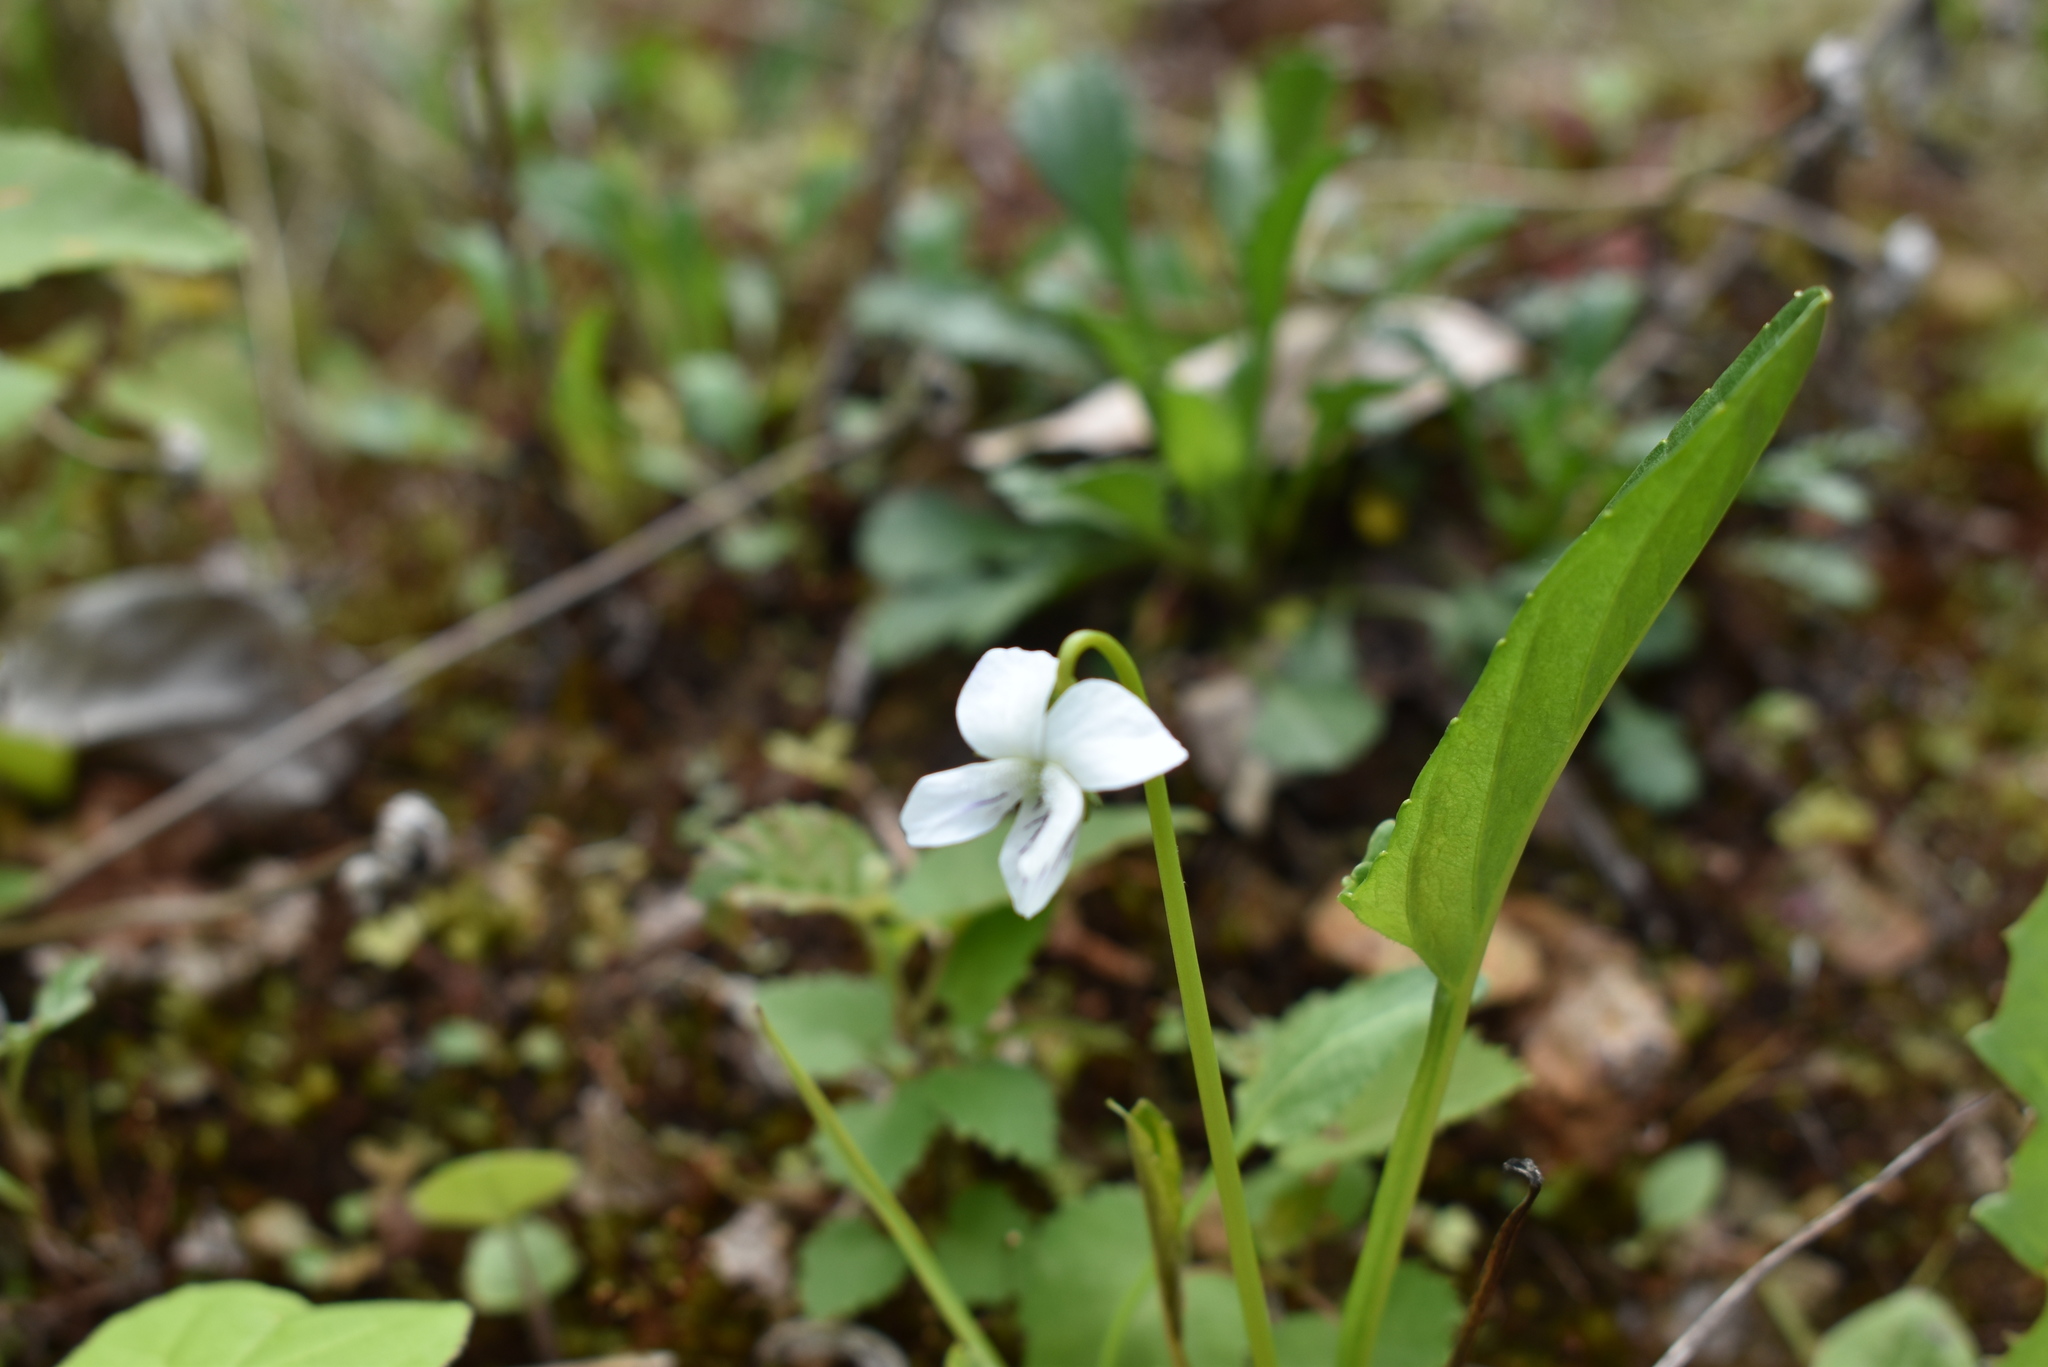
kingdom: Plantae
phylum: Tracheophyta
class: Magnoliopsida
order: Malpighiales
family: Violaceae
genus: Viola
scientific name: Viola patrinii
